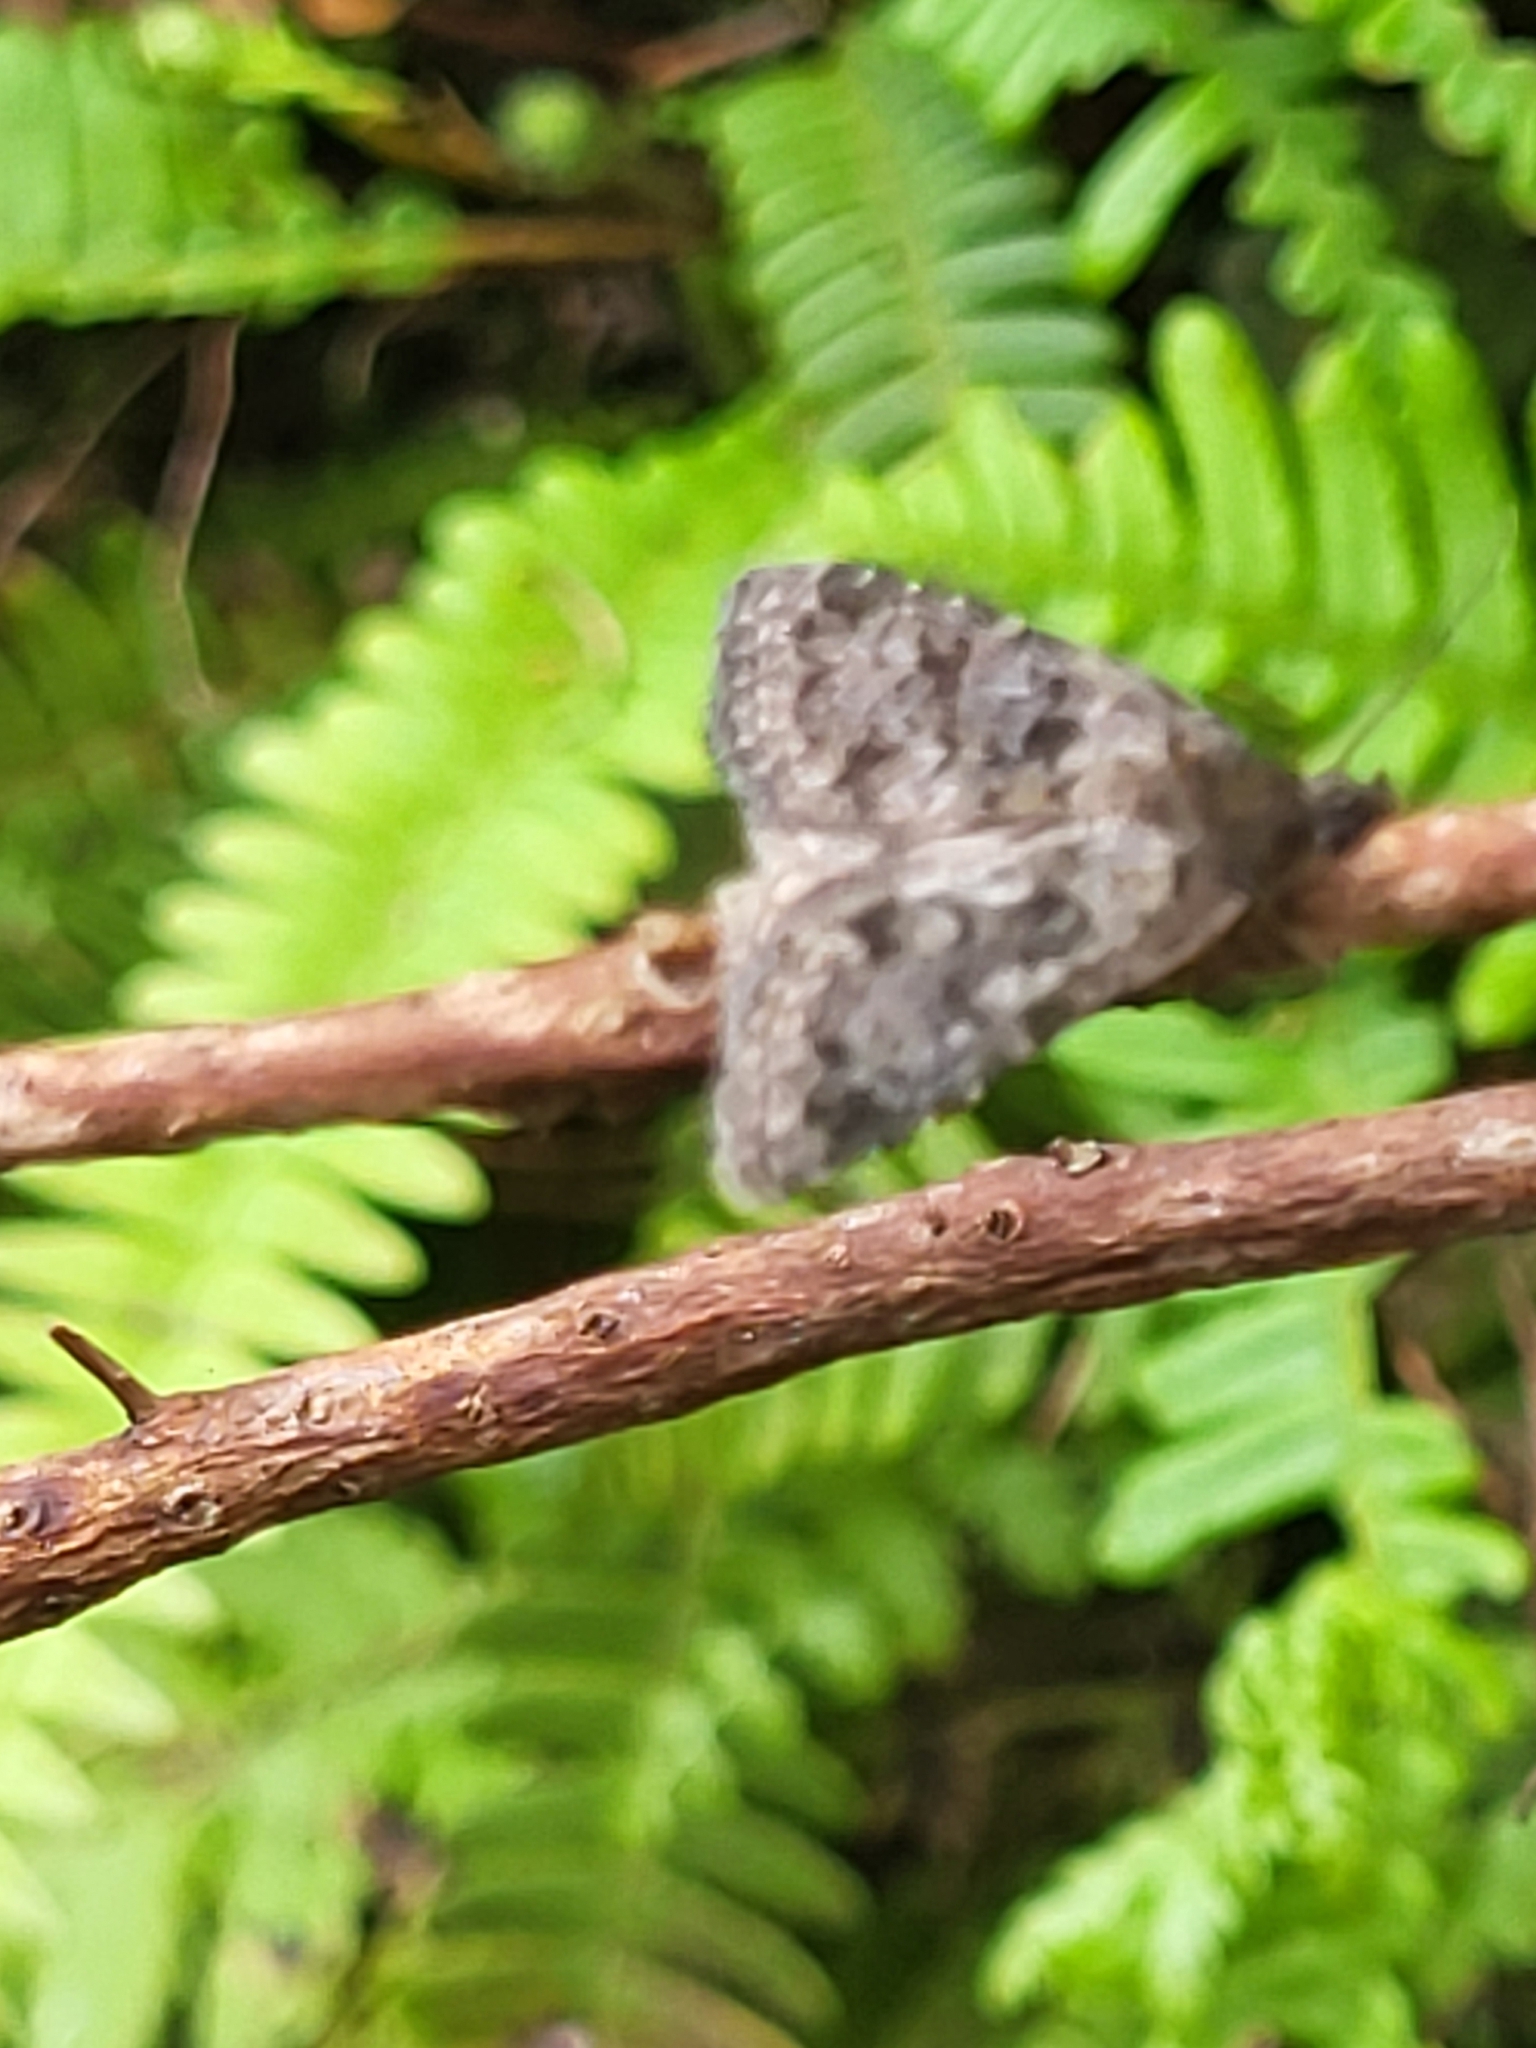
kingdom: Animalia
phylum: Arthropoda
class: Insecta
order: Lepidoptera
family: Noctuidae
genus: Nyctobrya
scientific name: Nyctobrya maderensis
